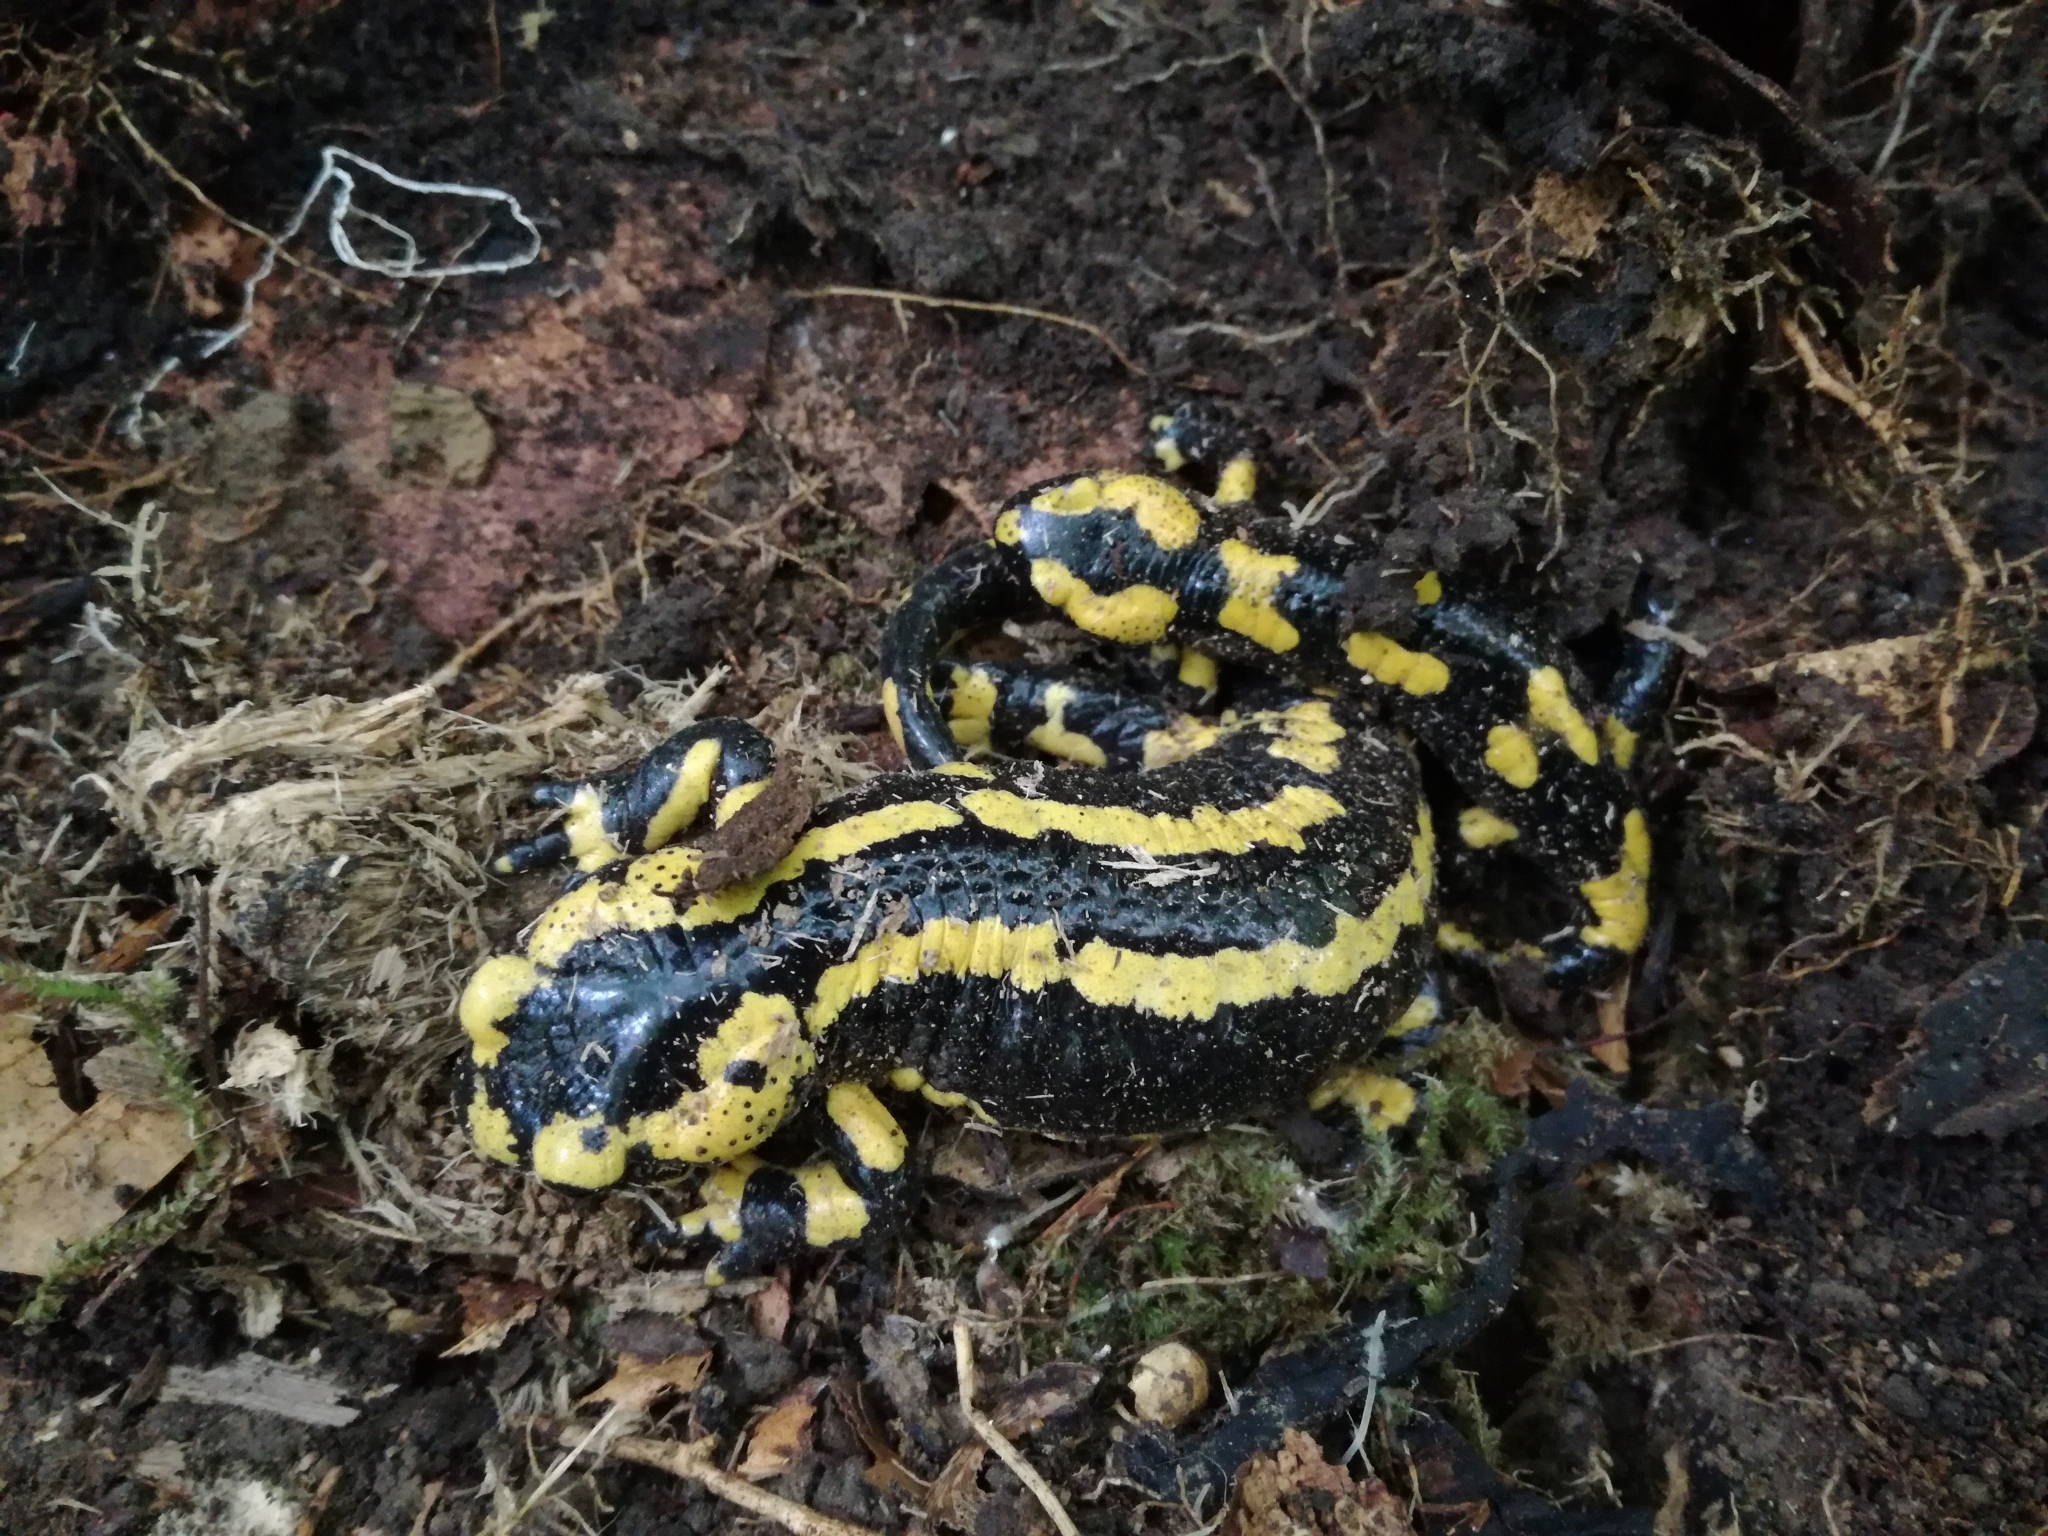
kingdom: Animalia
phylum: Chordata
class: Amphibia
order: Caudata
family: Salamandridae
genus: Salamandra
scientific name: Salamandra salamandra
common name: Fire salamander
